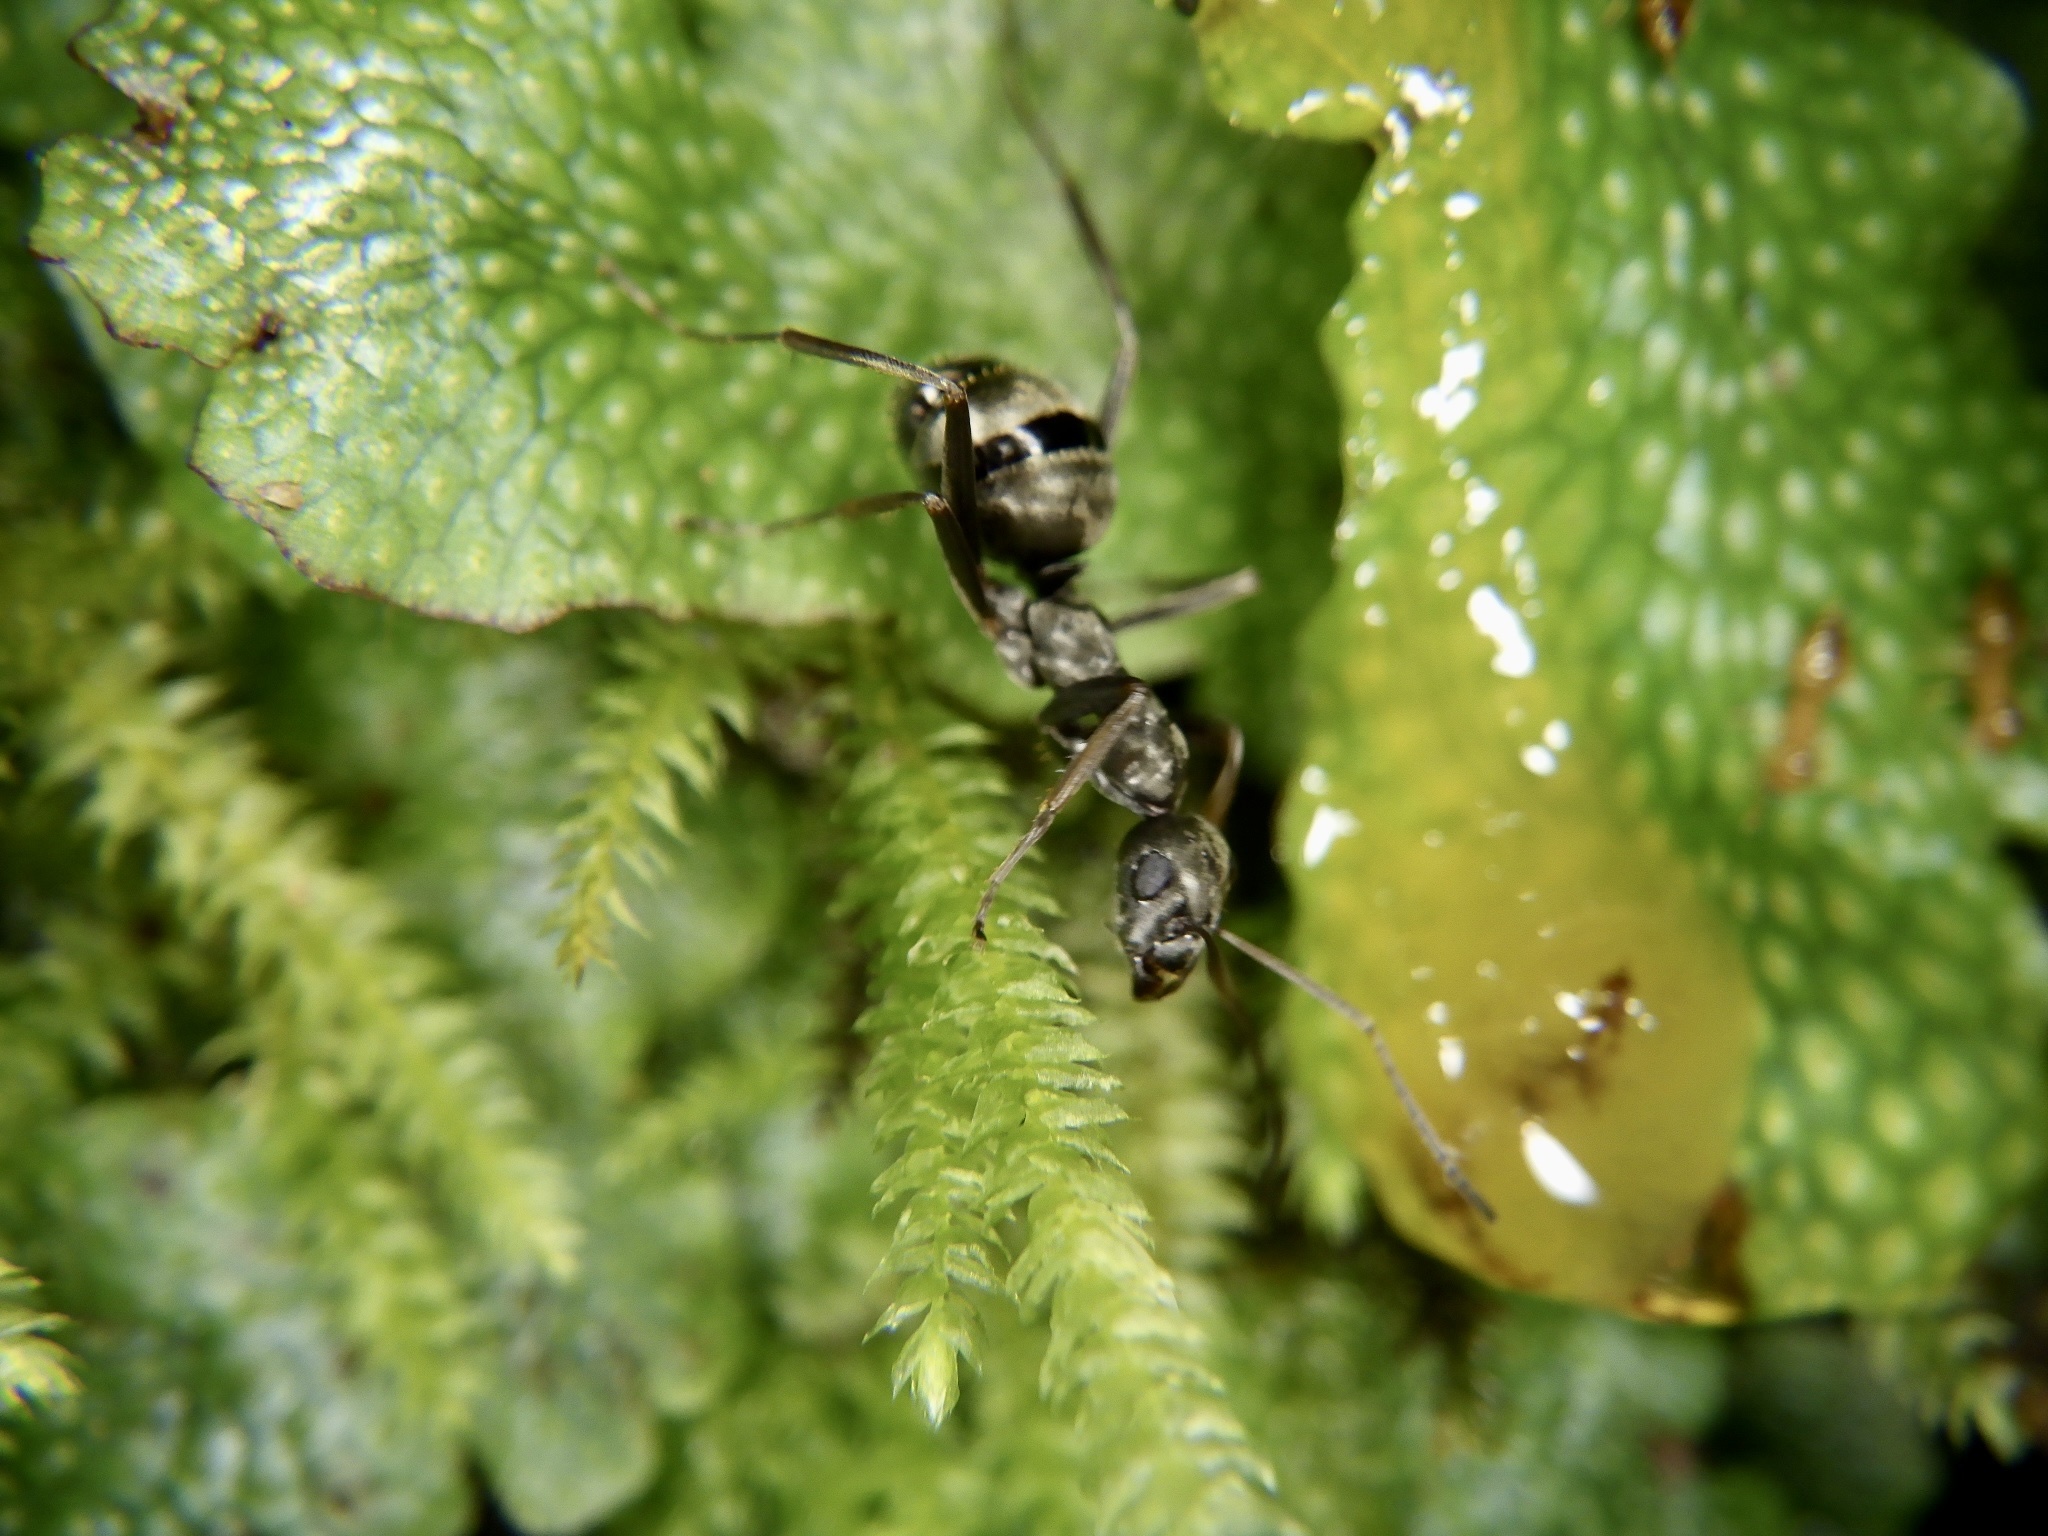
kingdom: Animalia
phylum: Arthropoda
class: Insecta
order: Hymenoptera
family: Formicidae
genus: Formica
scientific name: Formica japonica
